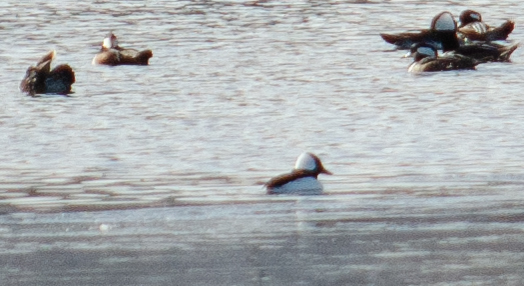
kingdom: Animalia
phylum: Chordata
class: Aves
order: Anseriformes
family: Anatidae
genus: Bucephala
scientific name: Bucephala albeola
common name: Bufflehead
